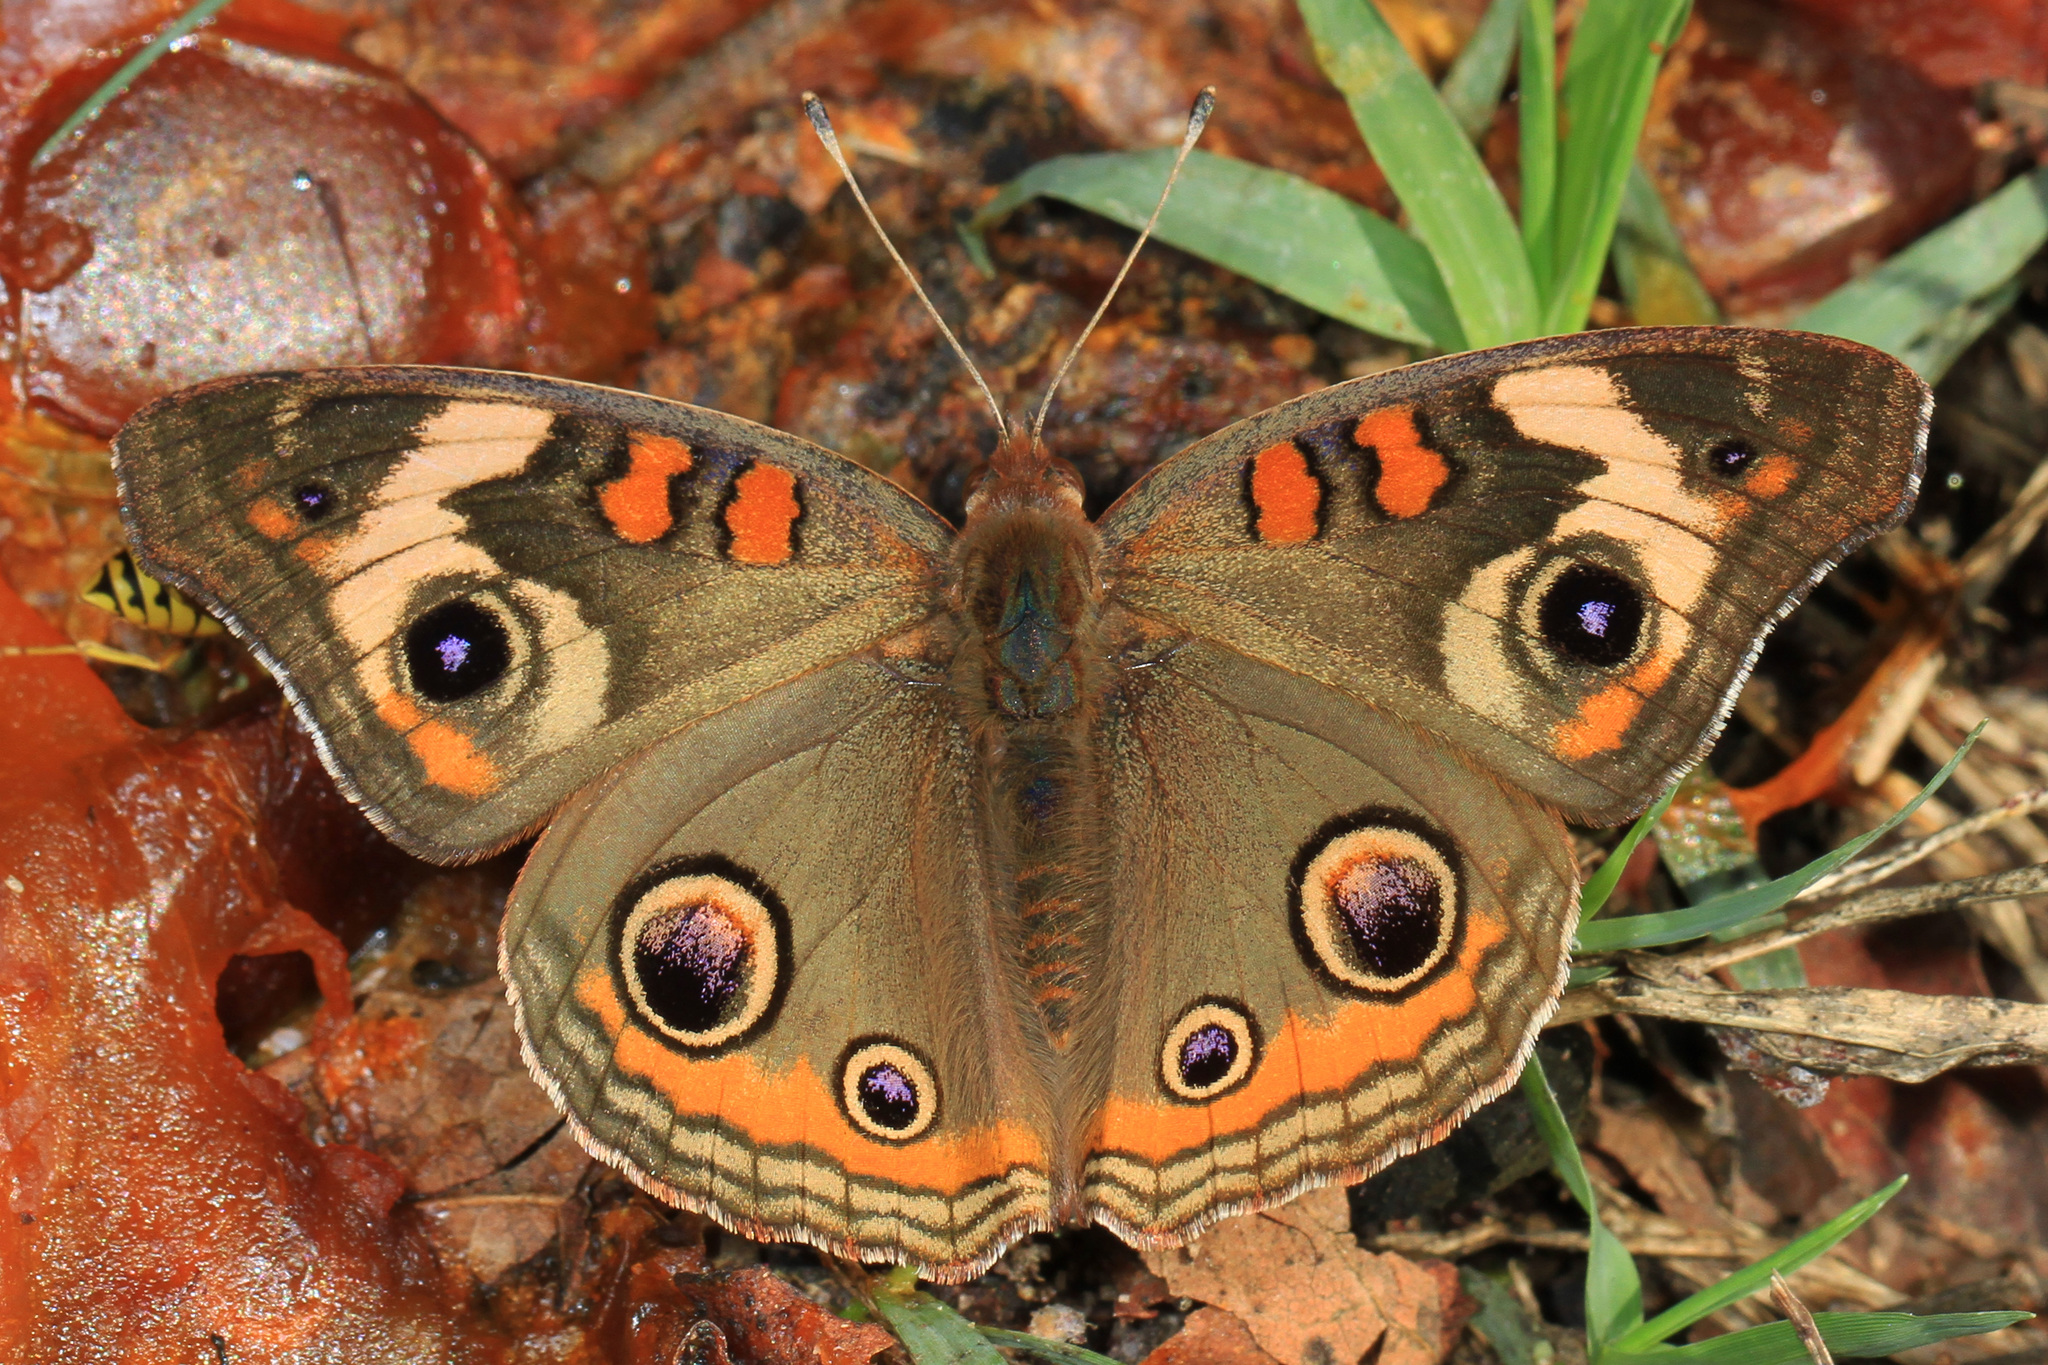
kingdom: Animalia
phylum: Arthropoda
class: Insecta
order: Lepidoptera
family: Nymphalidae
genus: Junonia
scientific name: Junonia coenia
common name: Common buckeye
